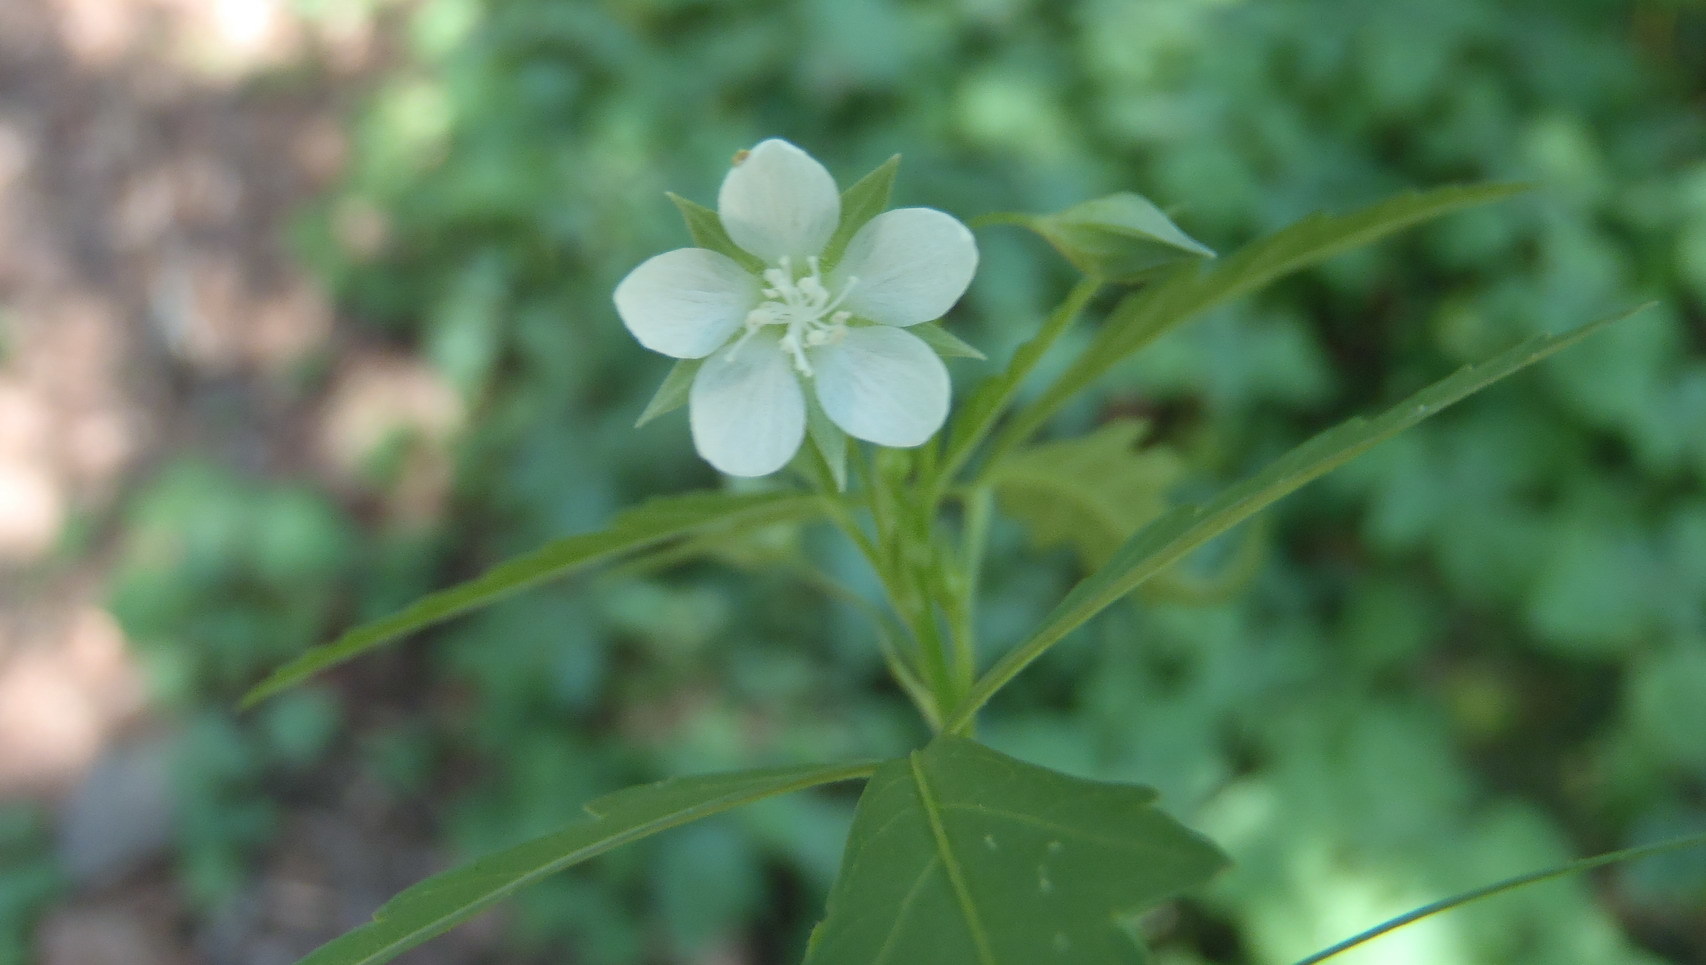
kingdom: Plantae
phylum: Tracheophyta
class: Magnoliopsida
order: Malvales
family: Malvaceae
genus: Sida
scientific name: Sida ternata
